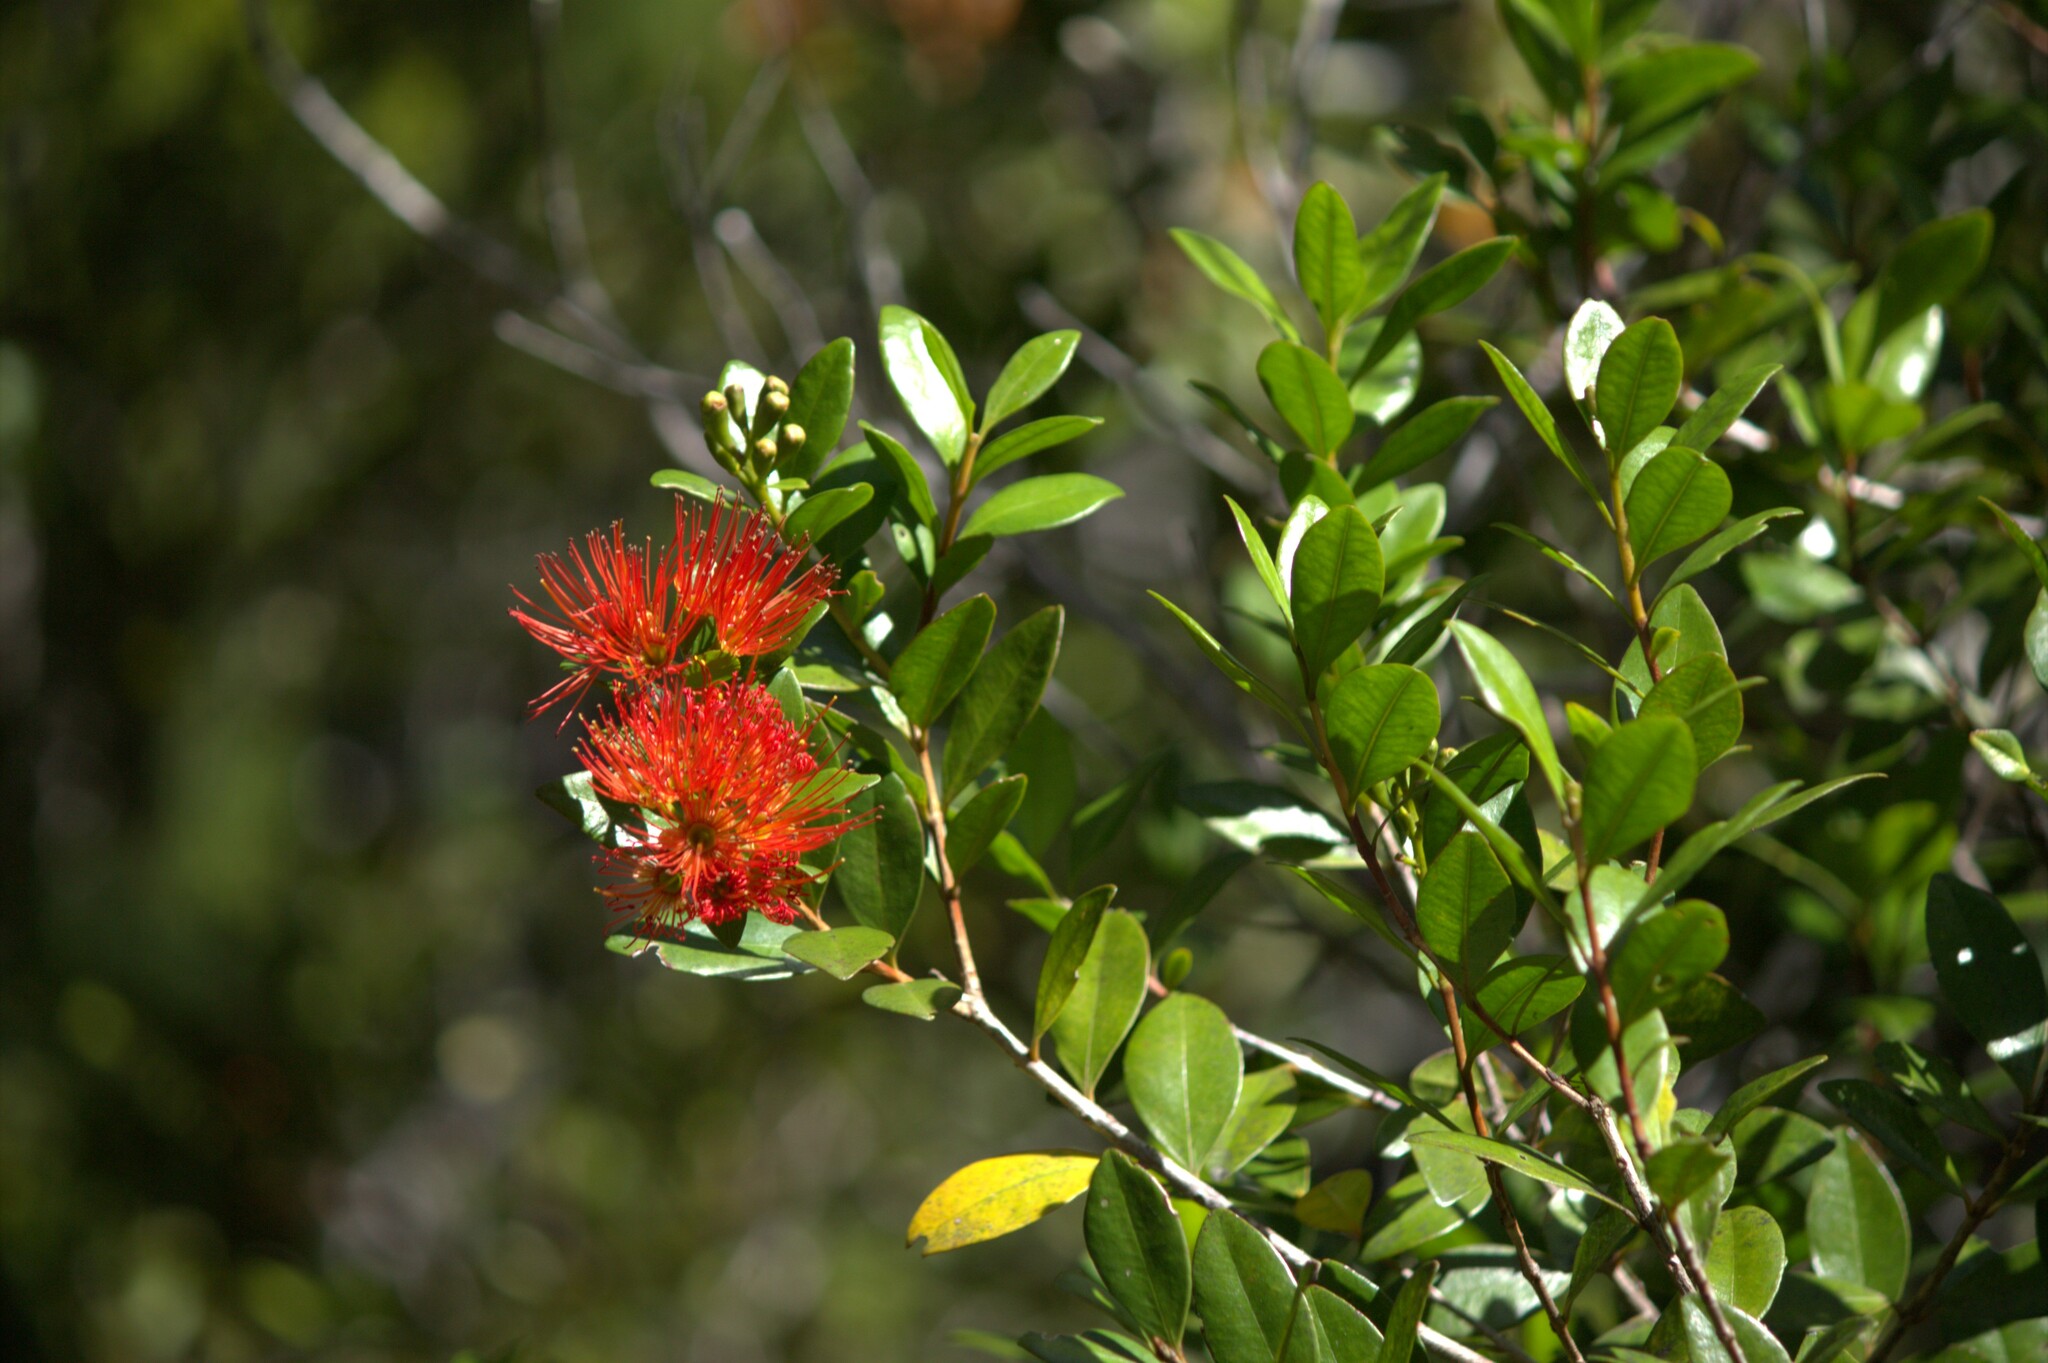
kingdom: Plantae
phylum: Tracheophyta
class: Magnoliopsida
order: Myrtales
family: Myrtaceae
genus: Metrosideros
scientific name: Metrosideros fulgens
